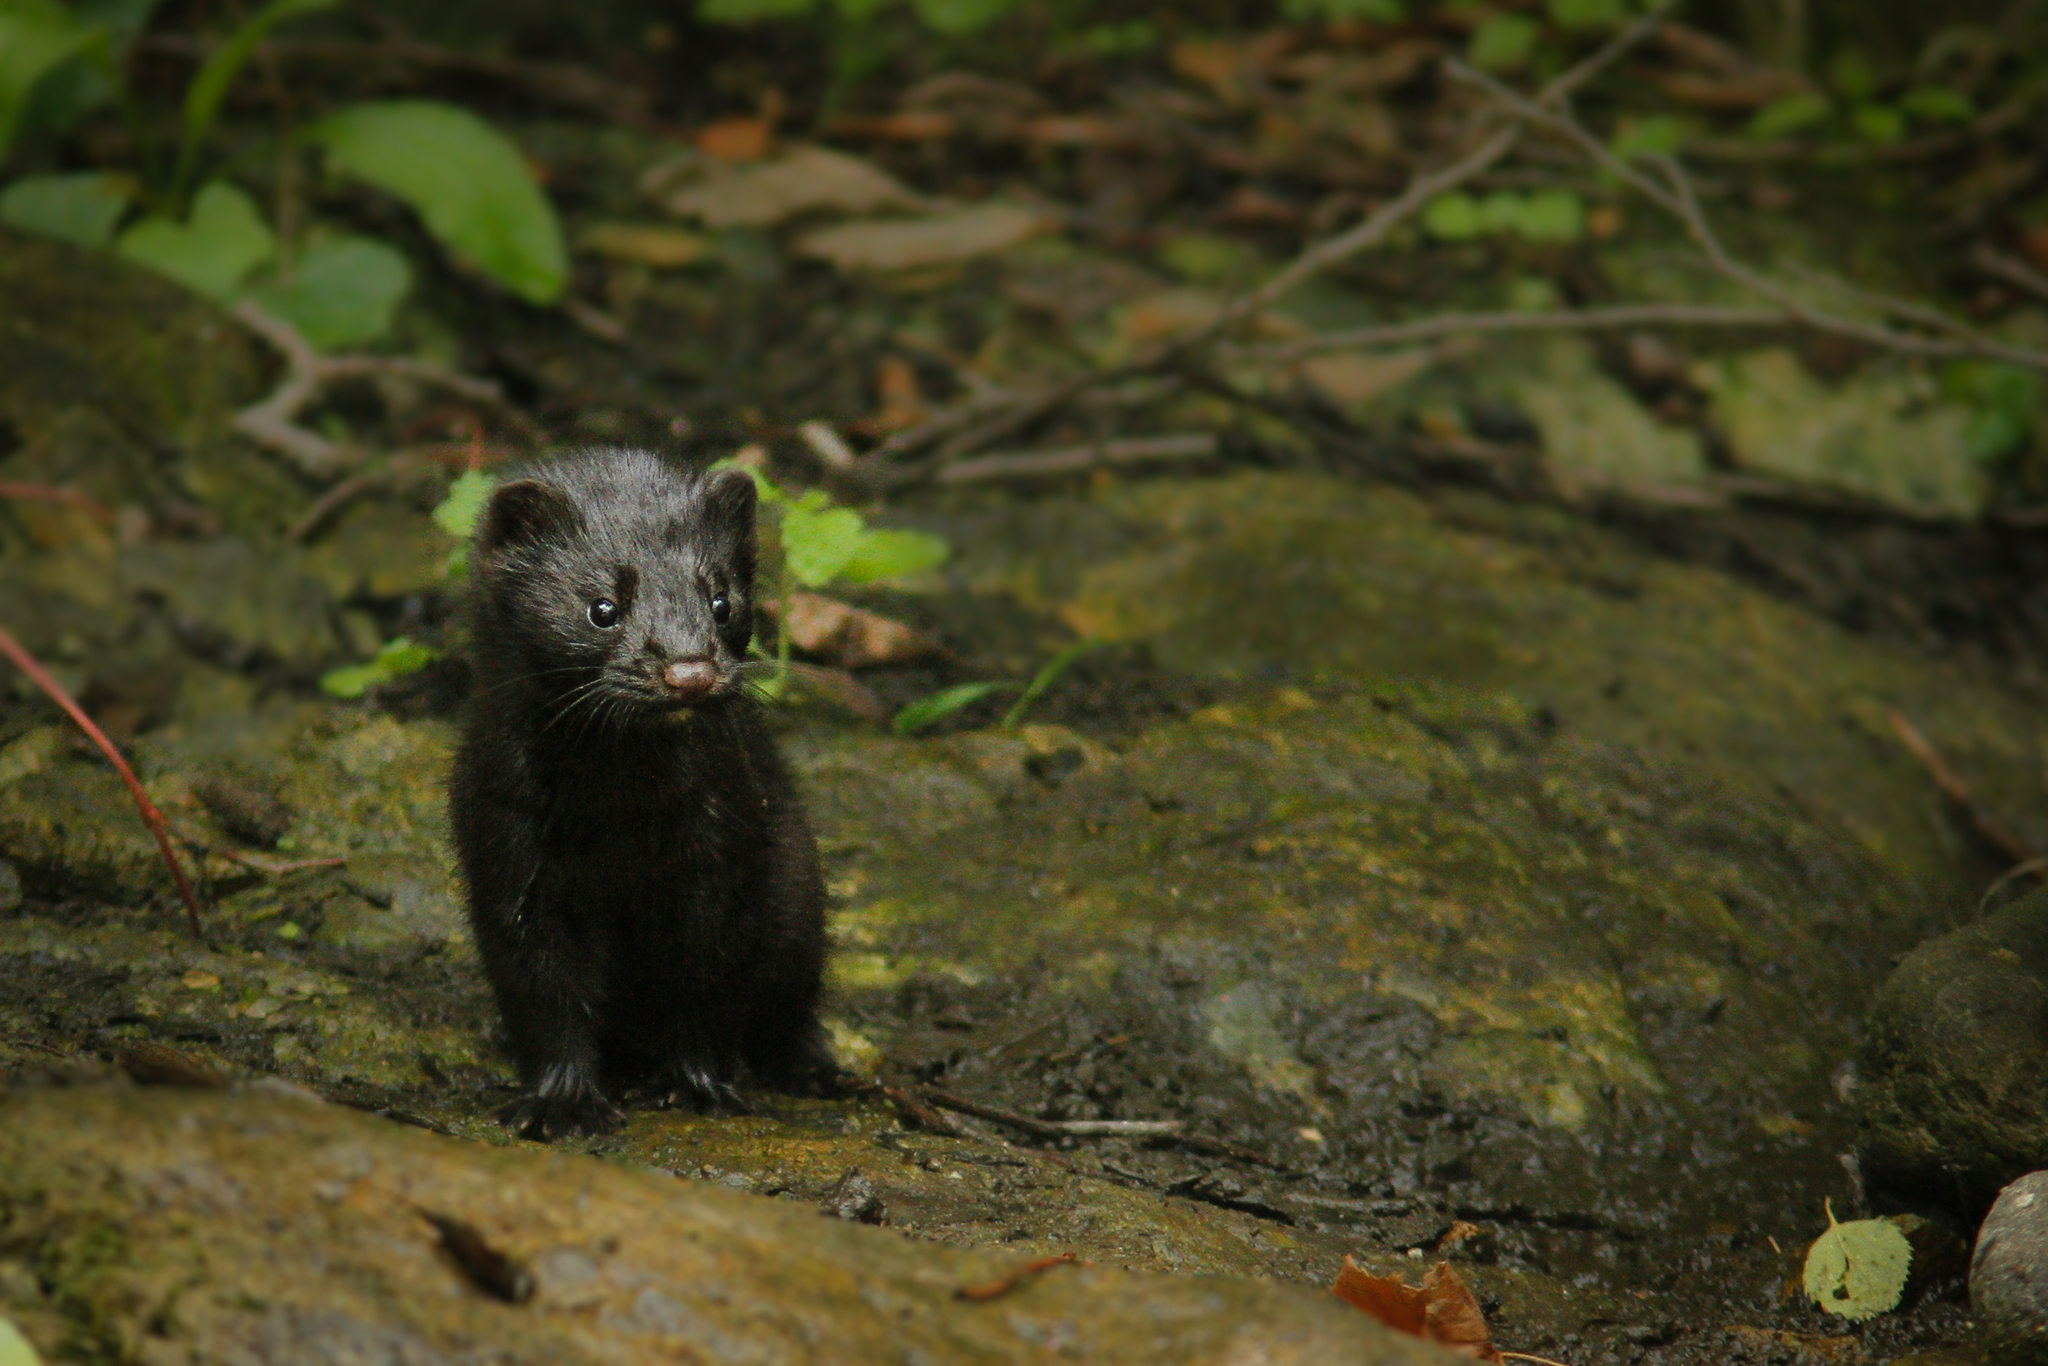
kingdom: Animalia
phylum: Chordata
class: Mammalia
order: Carnivora
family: Mustelidae
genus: Mustela
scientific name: Mustela
